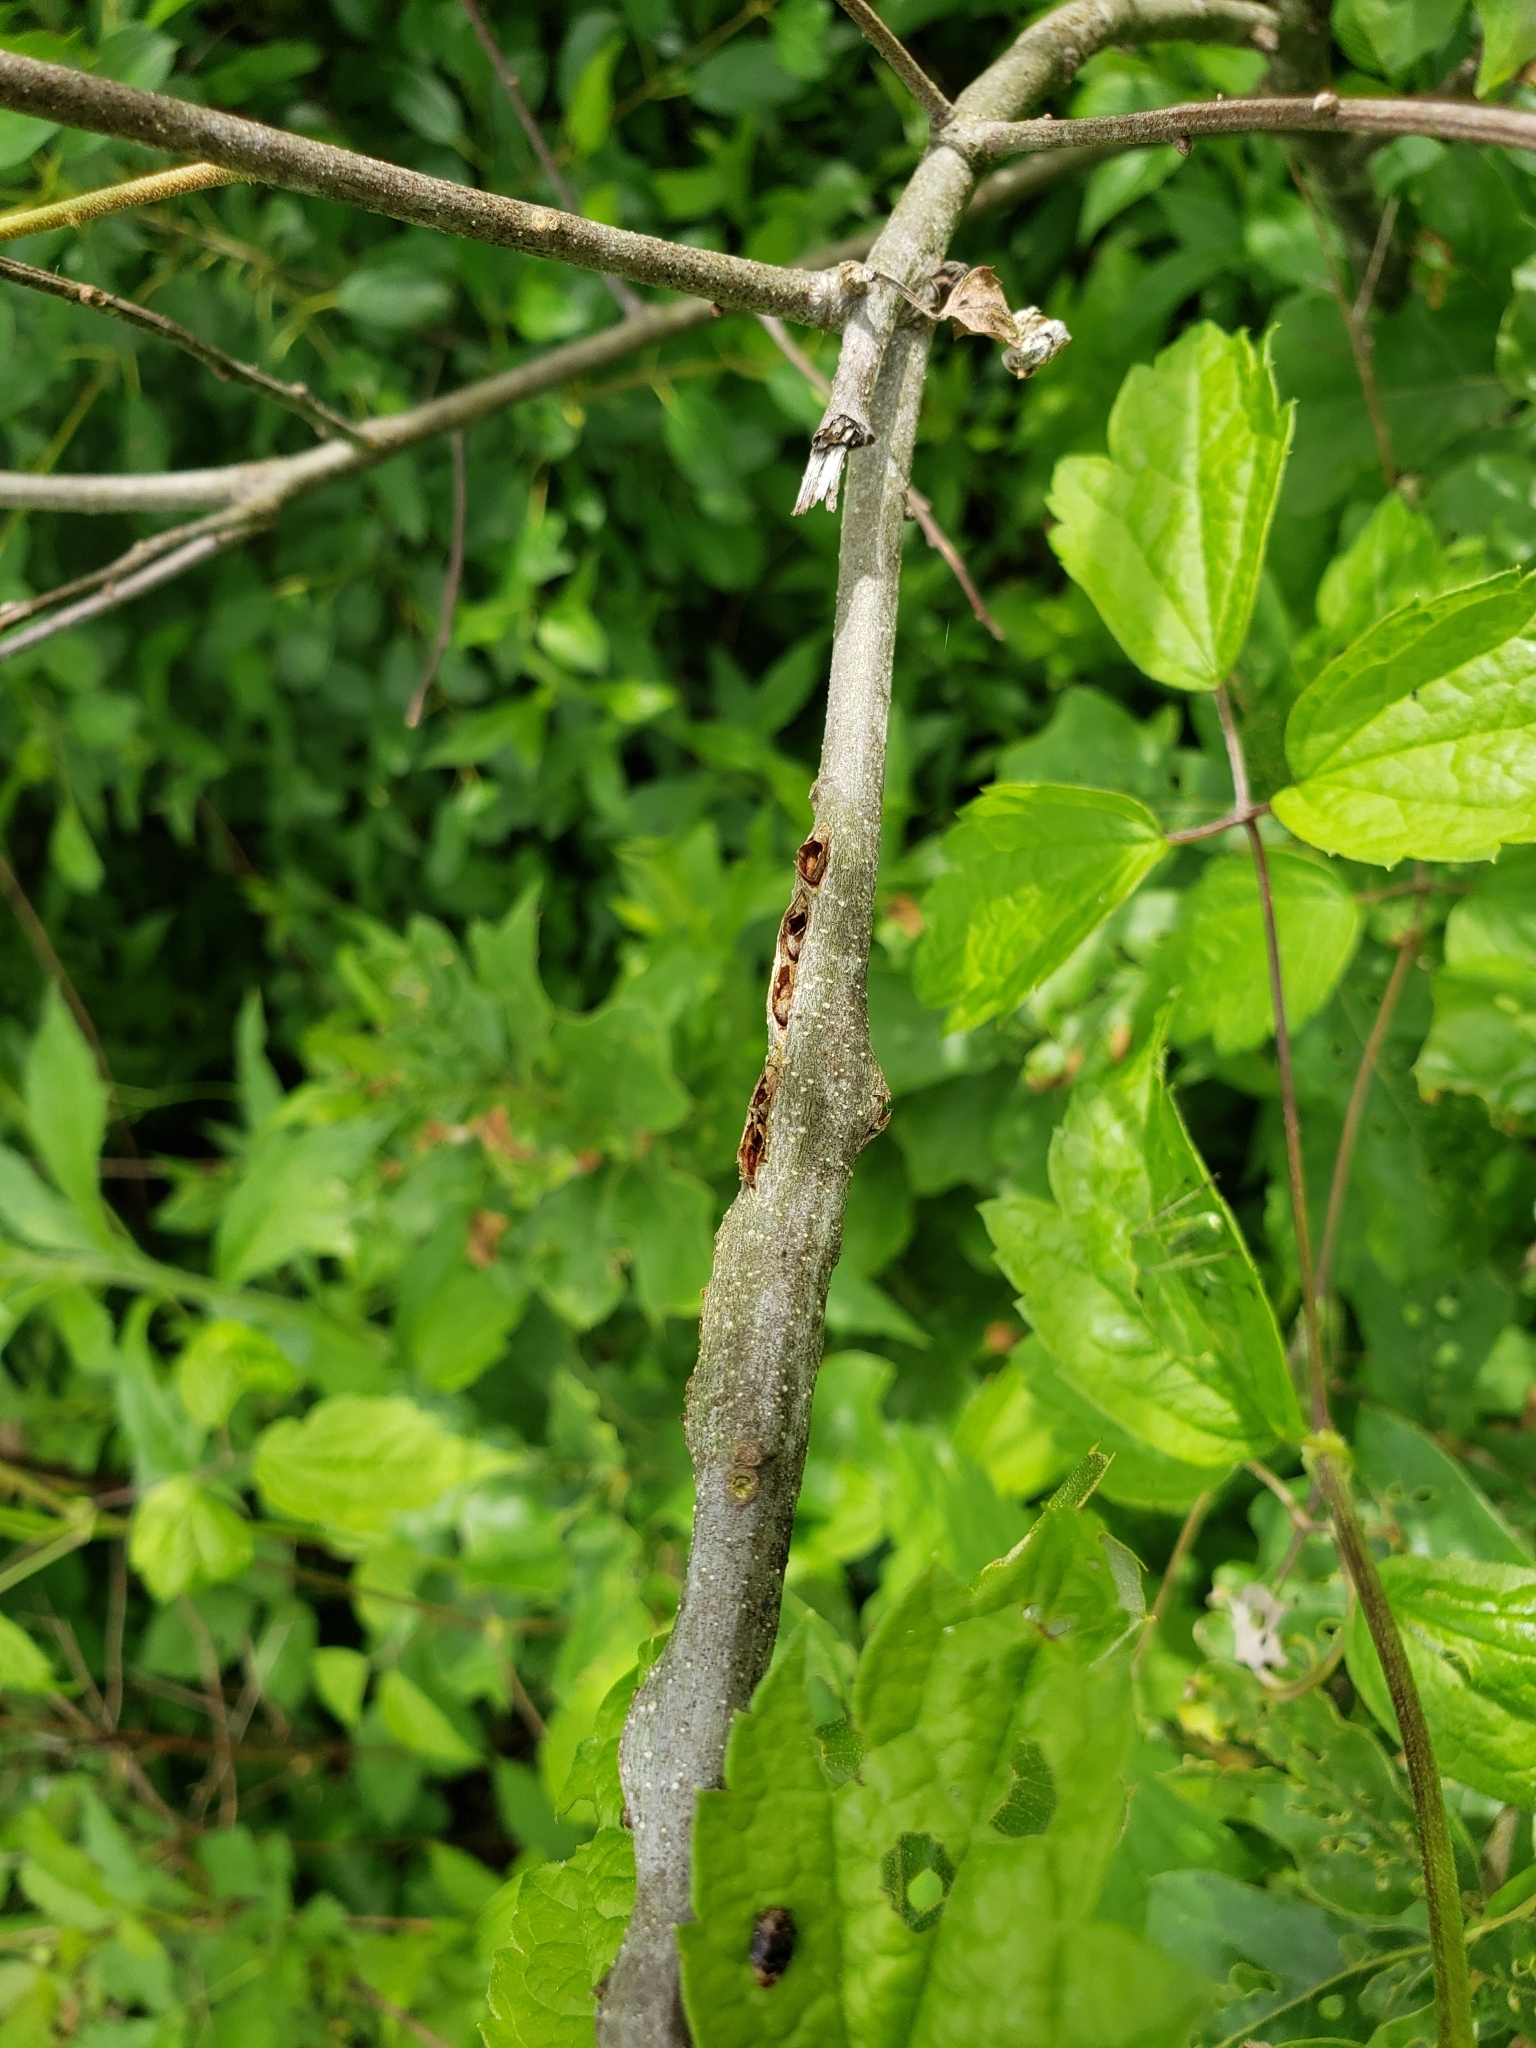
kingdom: Animalia
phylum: Arthropoda
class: Insecta
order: Hymenoptera
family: Cynipidae
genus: Callirhytis
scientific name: Callirhytis
